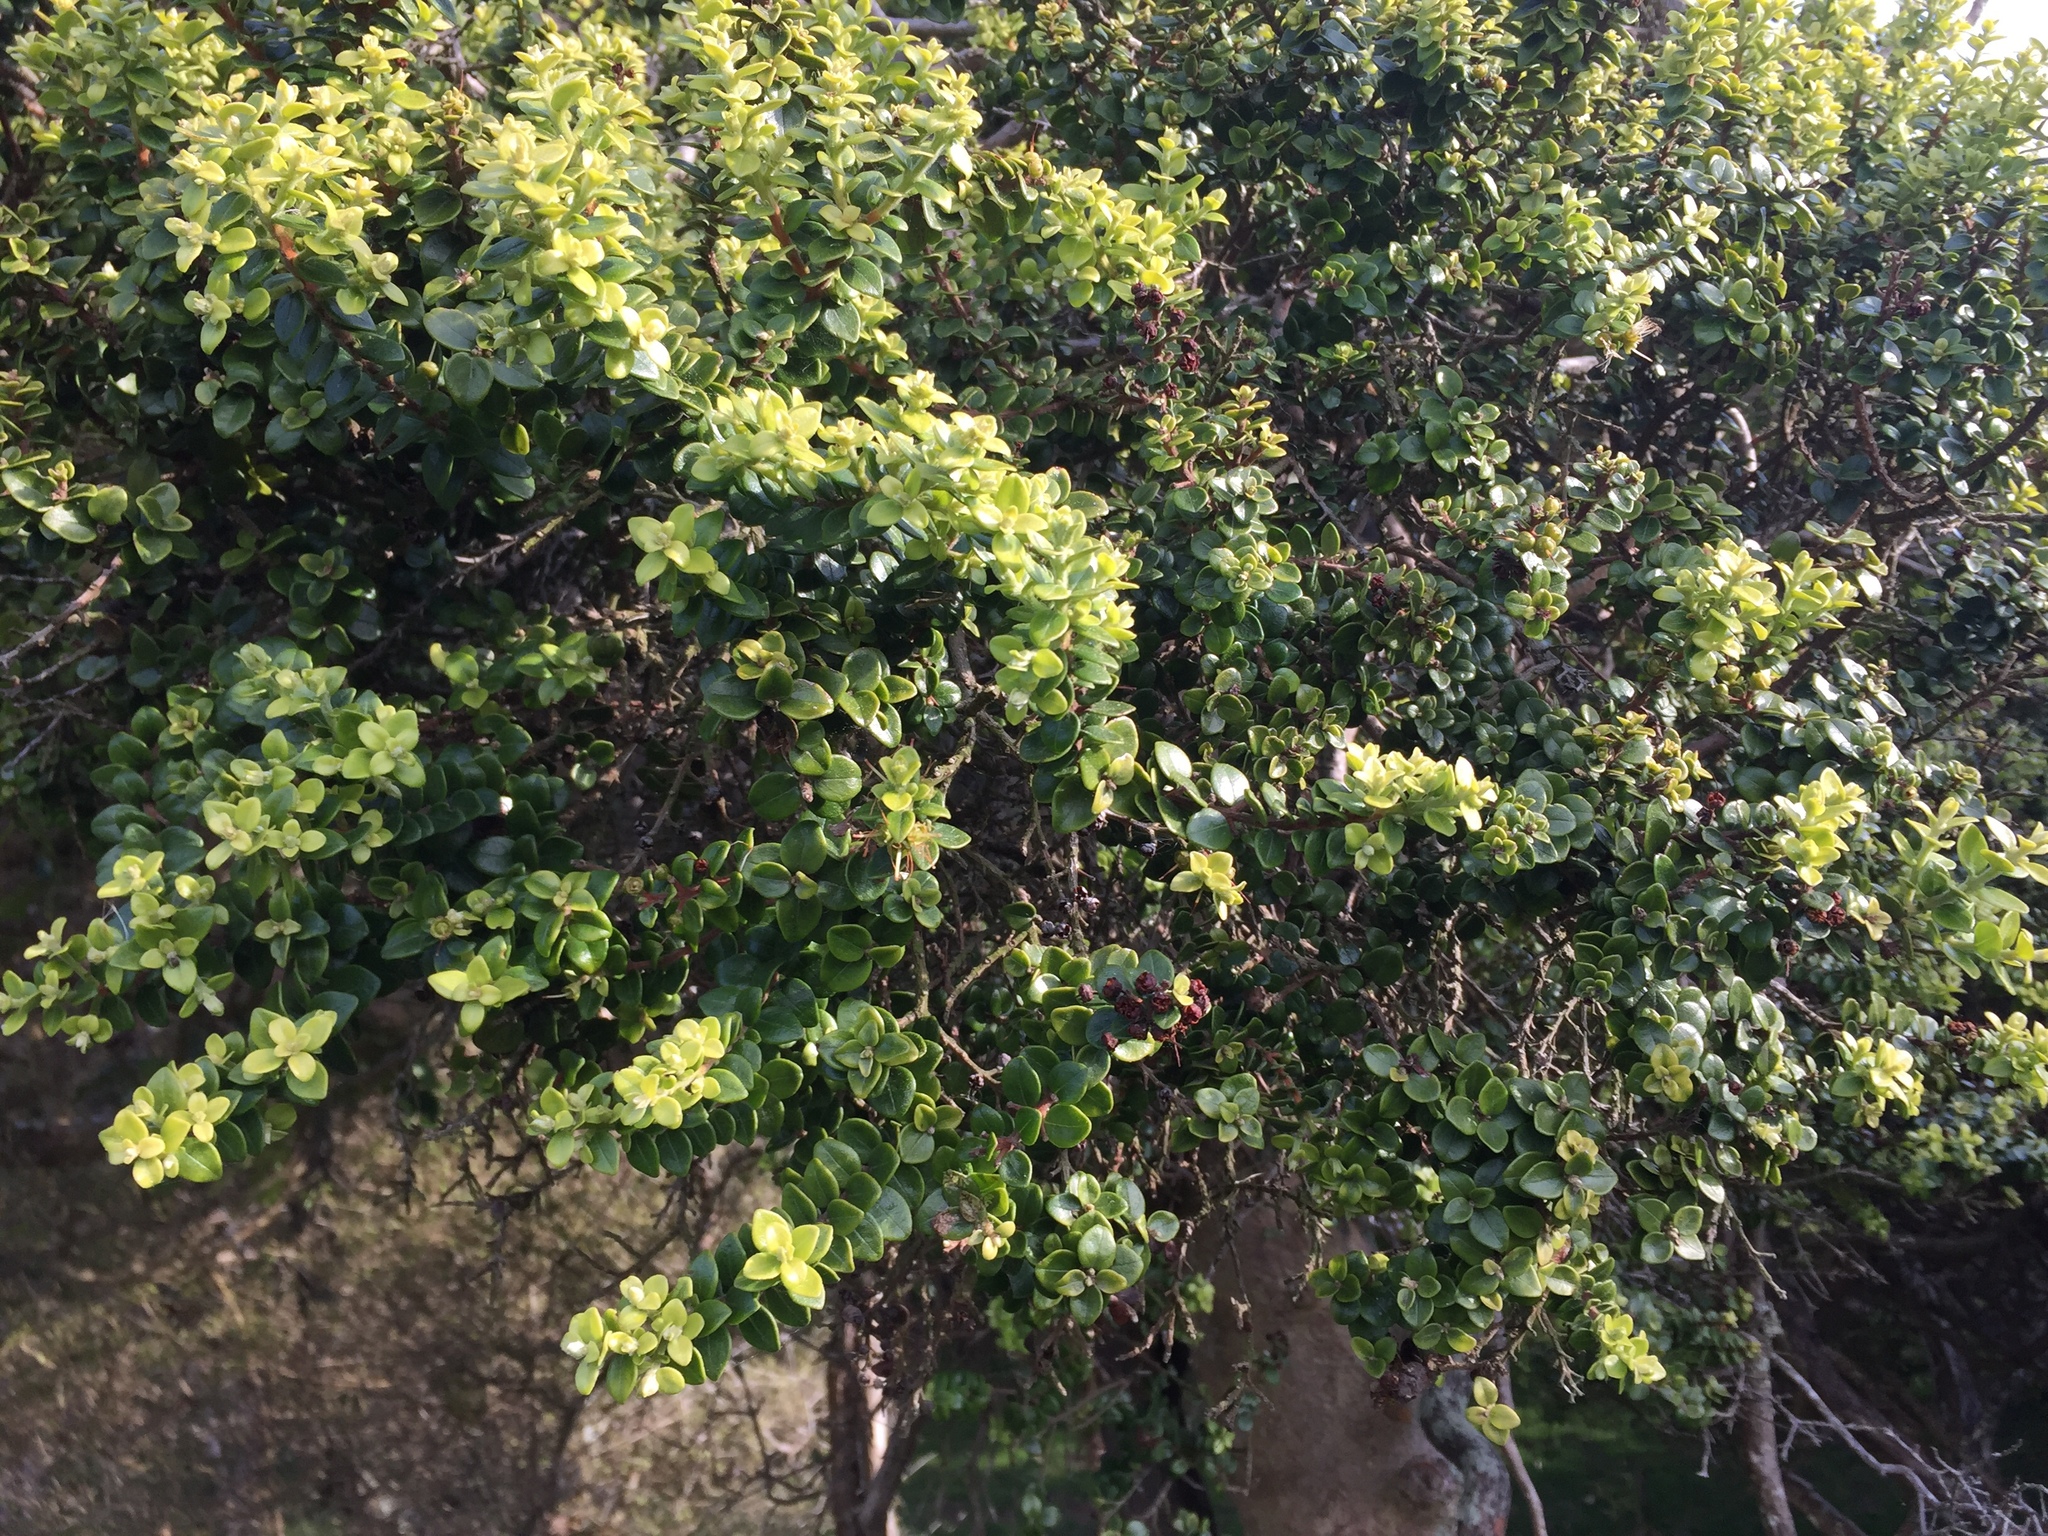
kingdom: Plantae
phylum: Tracheophyta
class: Magnoliopsida
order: Myrtales
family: Myrtaceae
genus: Metrosideros
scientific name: Metrosideros perforata
